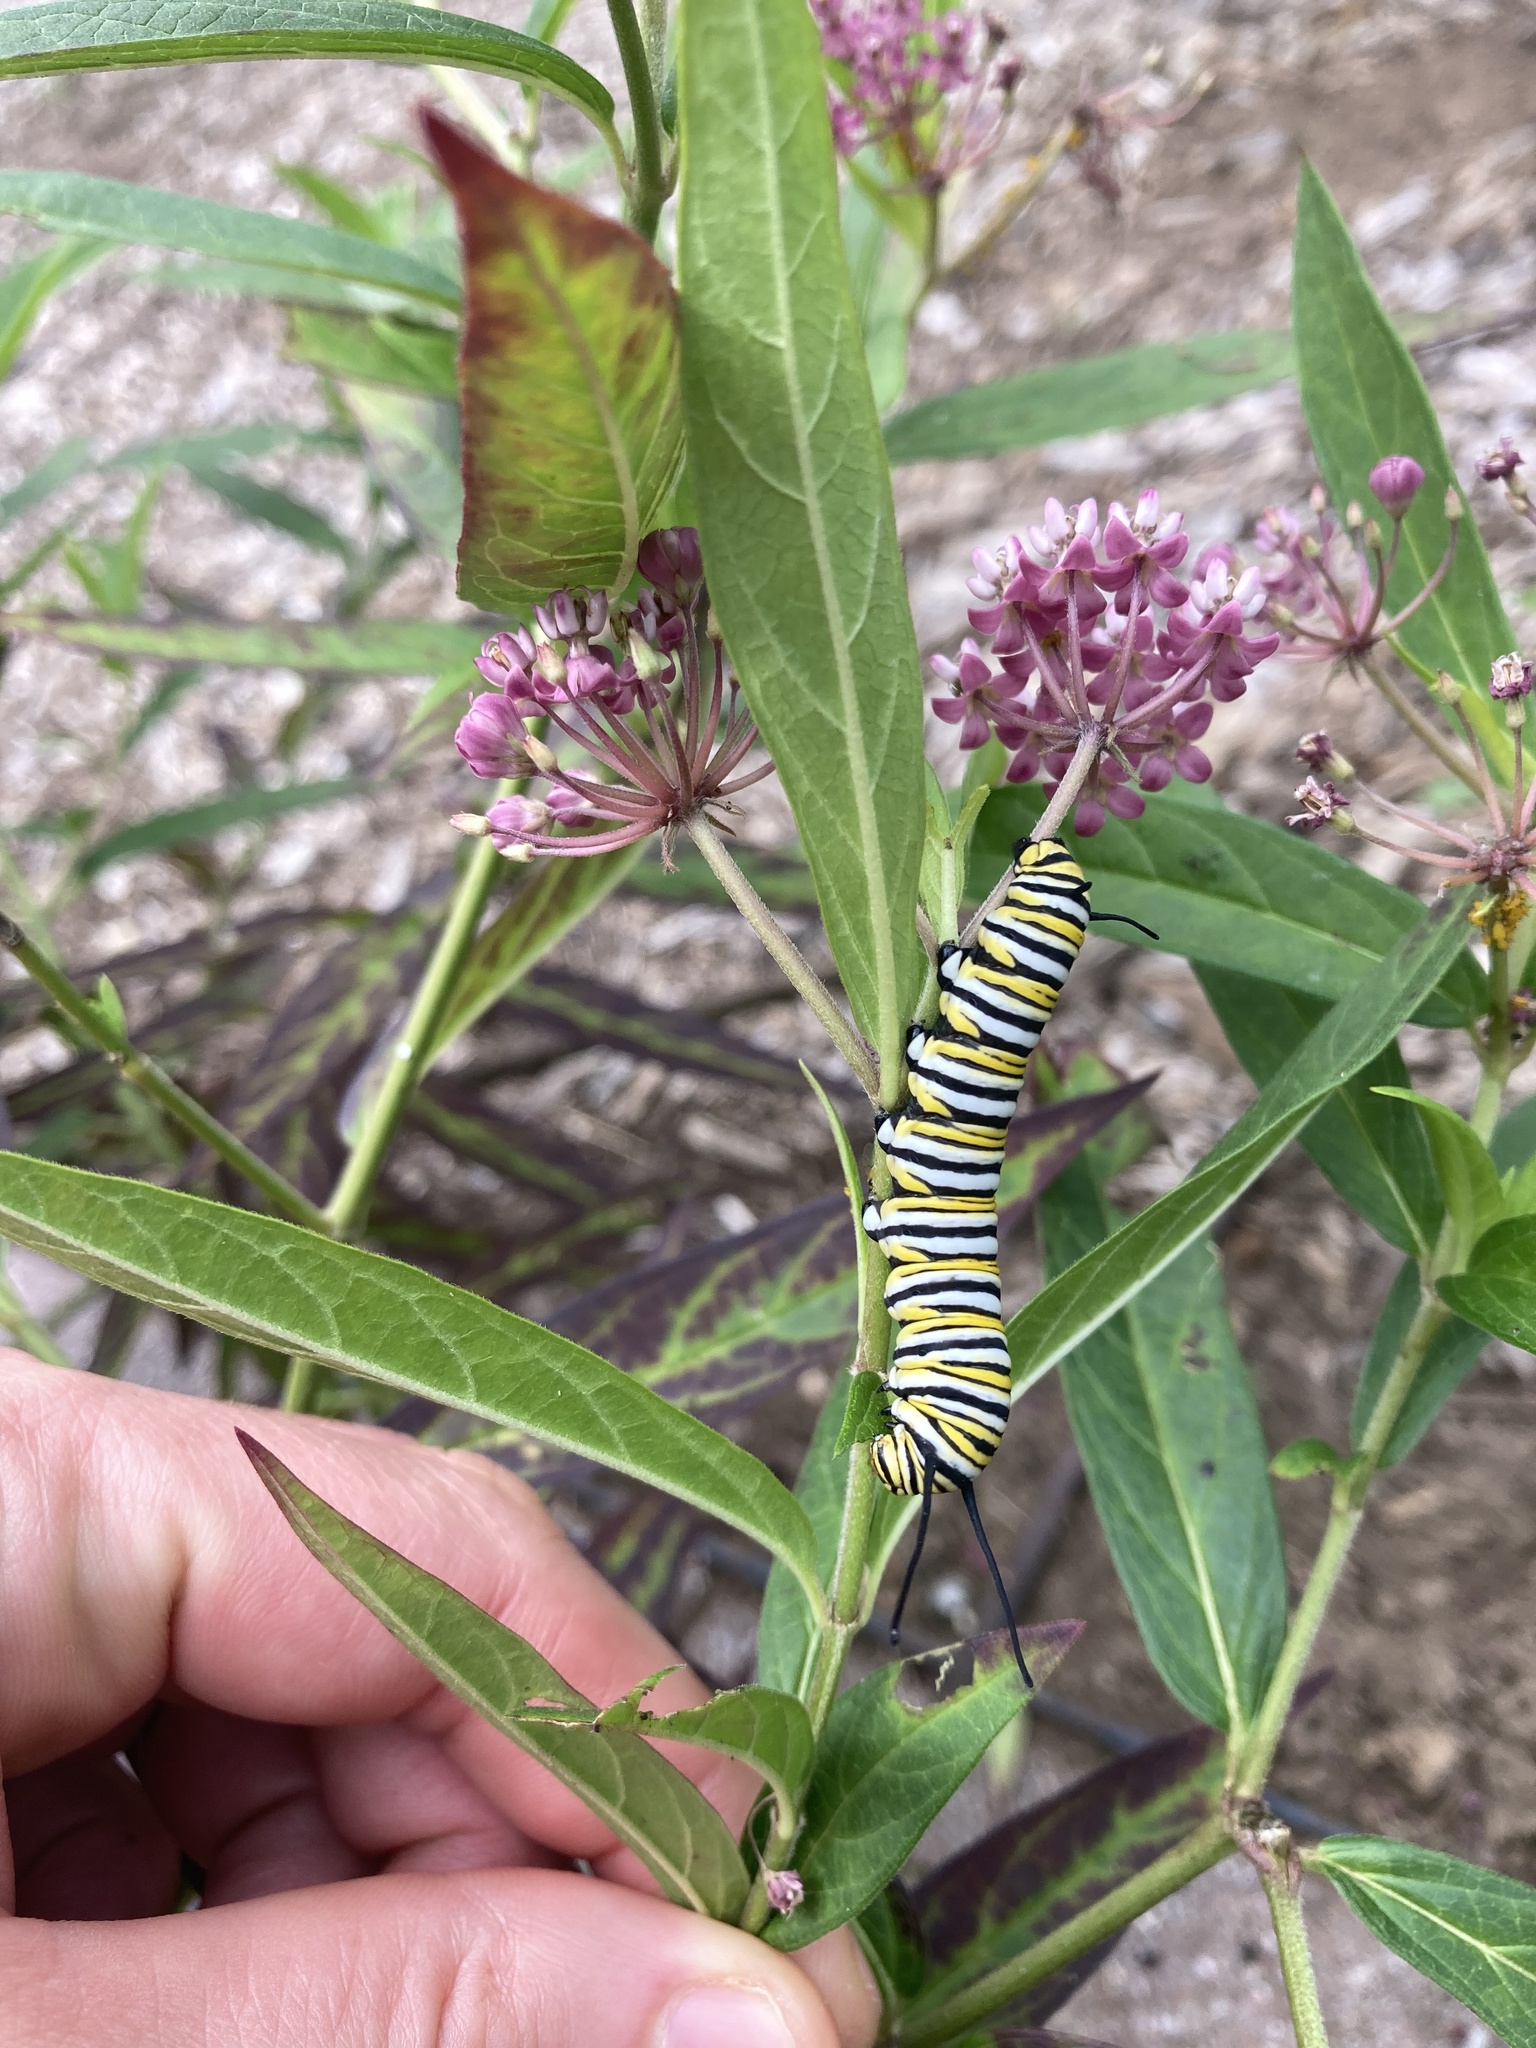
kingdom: Animalia
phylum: Arthropoda
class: Insecta
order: Lepidoptera
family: Nymphalidae
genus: Danaus
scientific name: Danaus plexippus
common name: Monarch
